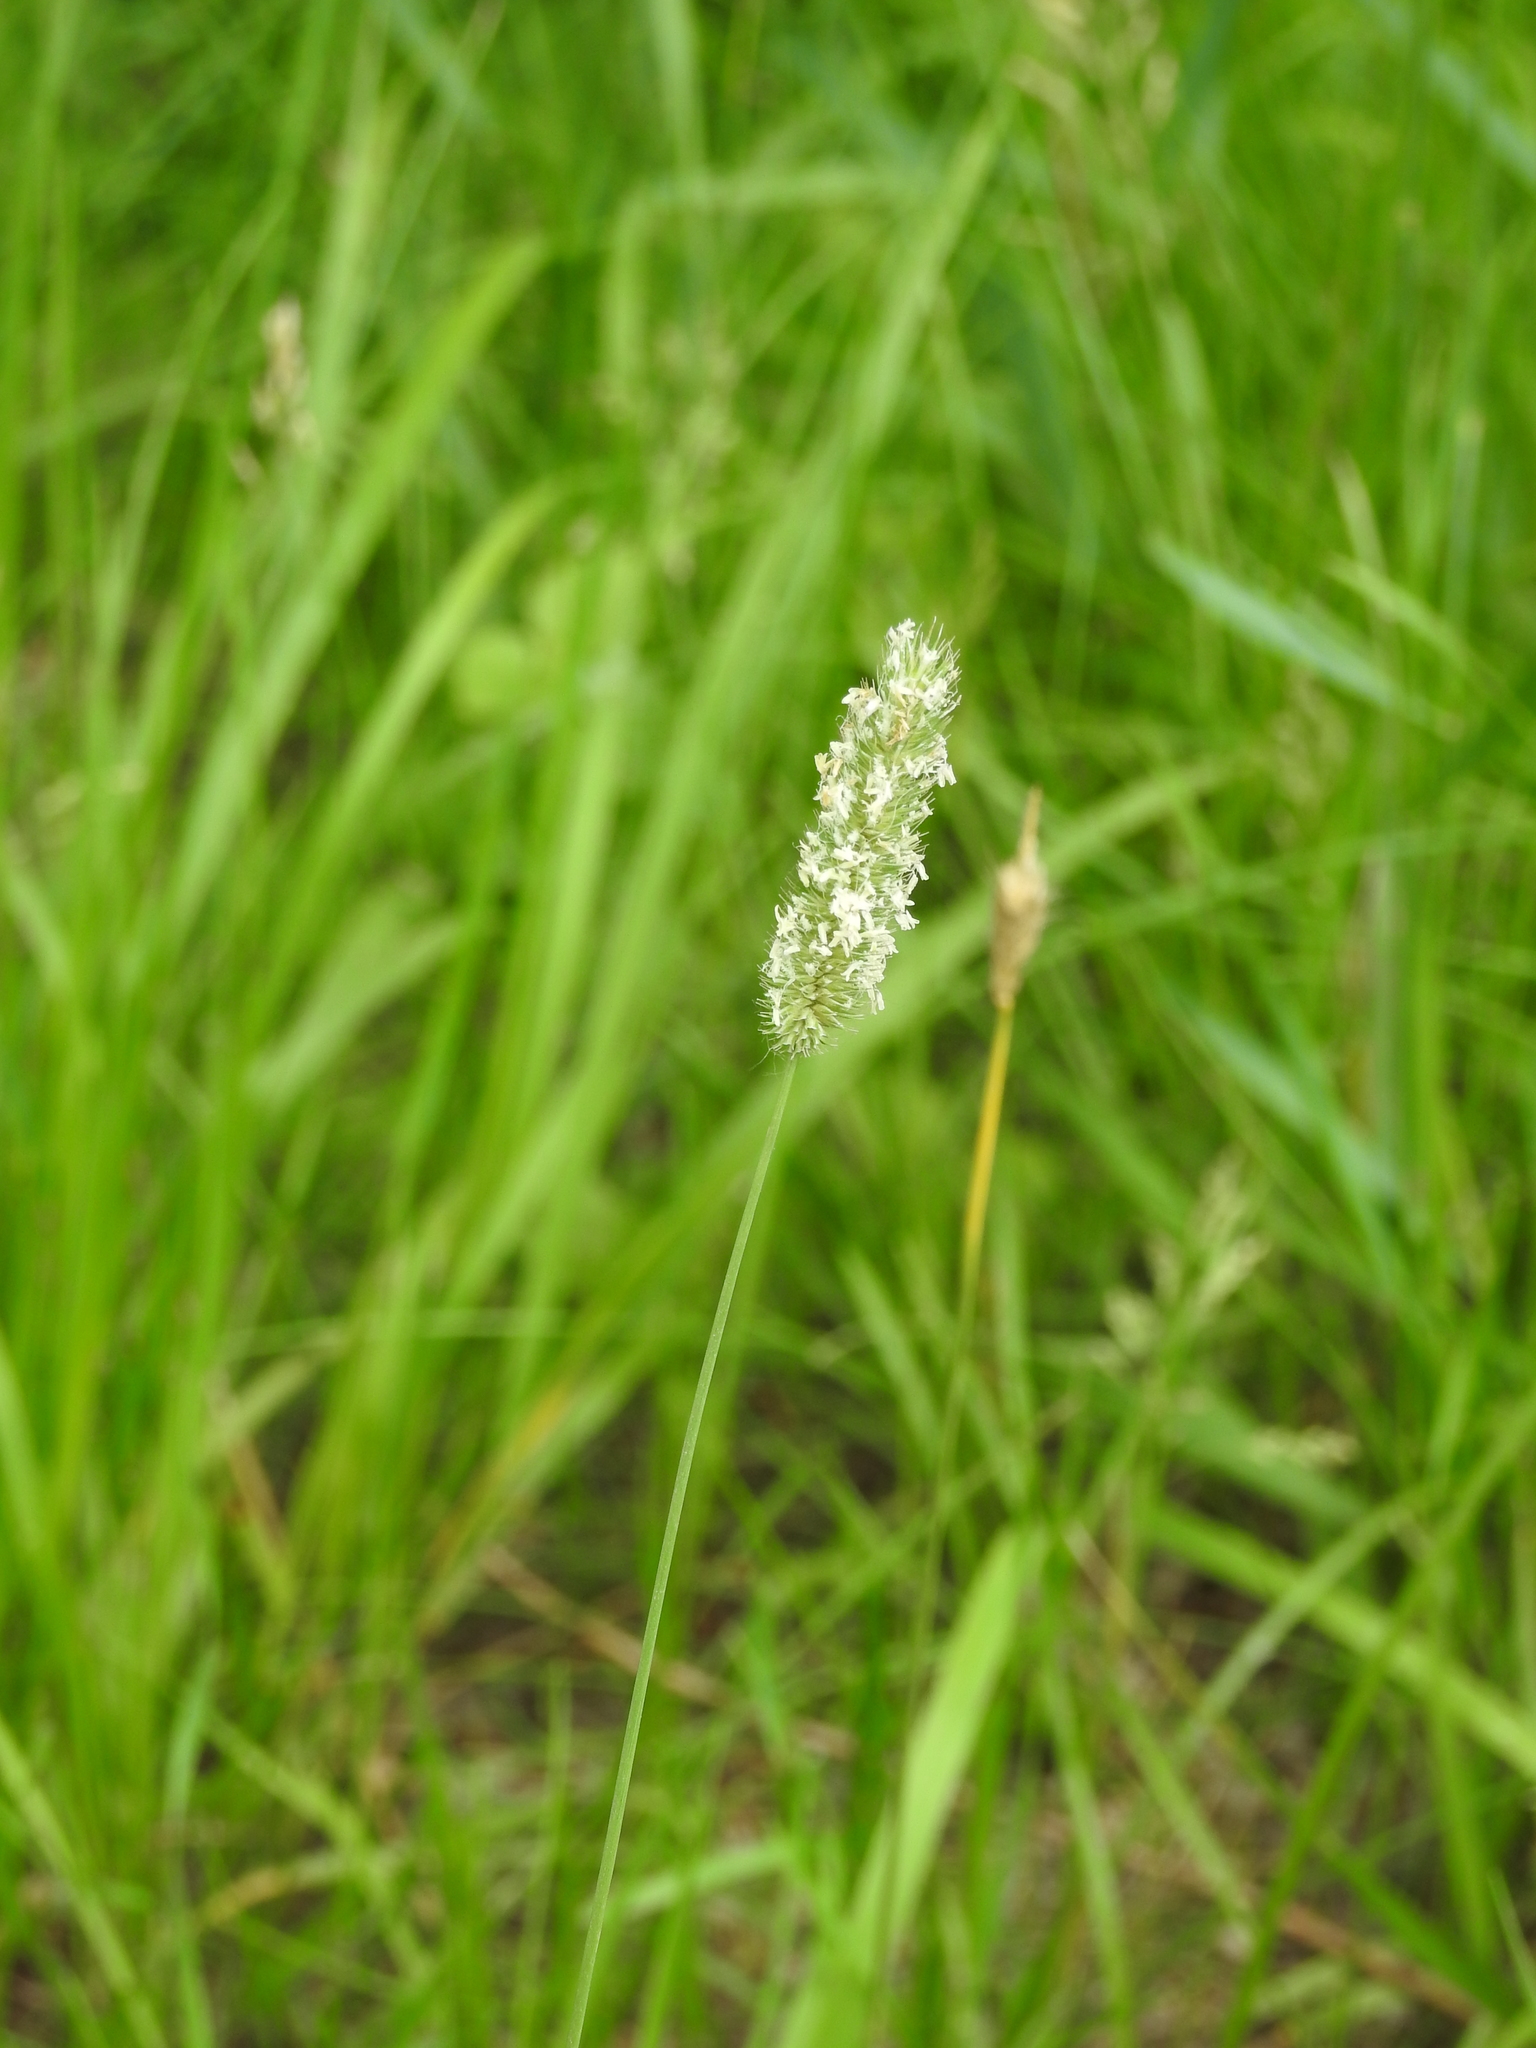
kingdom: Plantae
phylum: Tracheophyta
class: Liliopsida
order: Poales
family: Poaceae
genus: Phleum
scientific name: Phleum pratense
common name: Timothy grass
